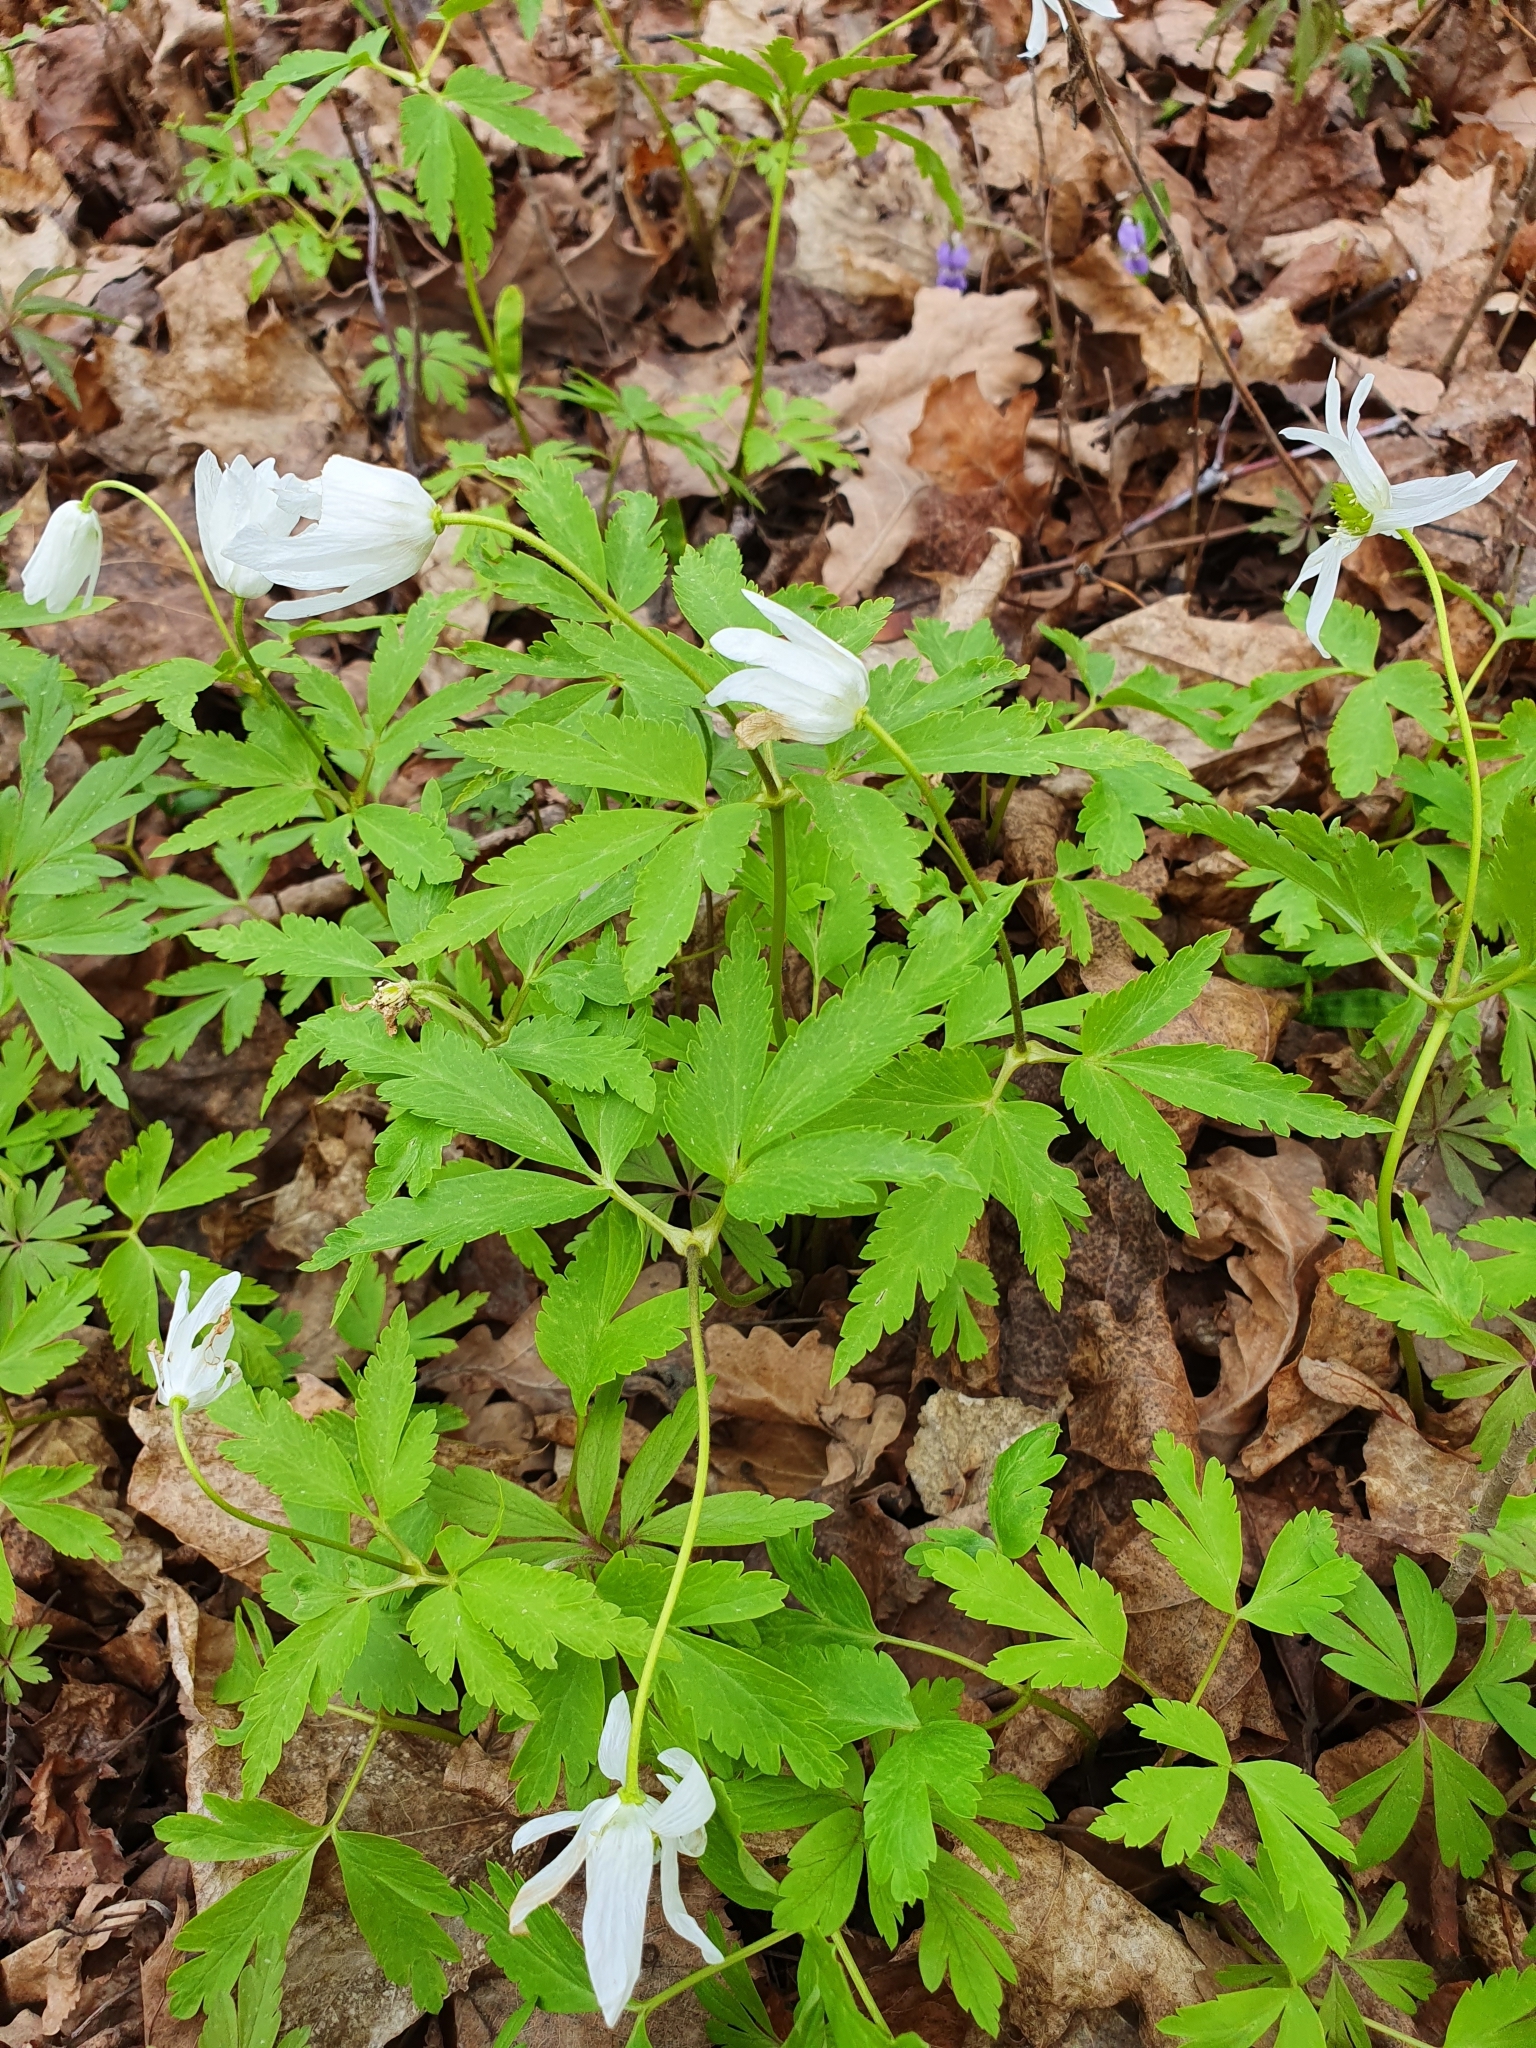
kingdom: Plantae
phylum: Tracheophyta
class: Magnoliopsida
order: Ranunculales
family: Ranunculaceae
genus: Anemone
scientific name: Anemone altaica
